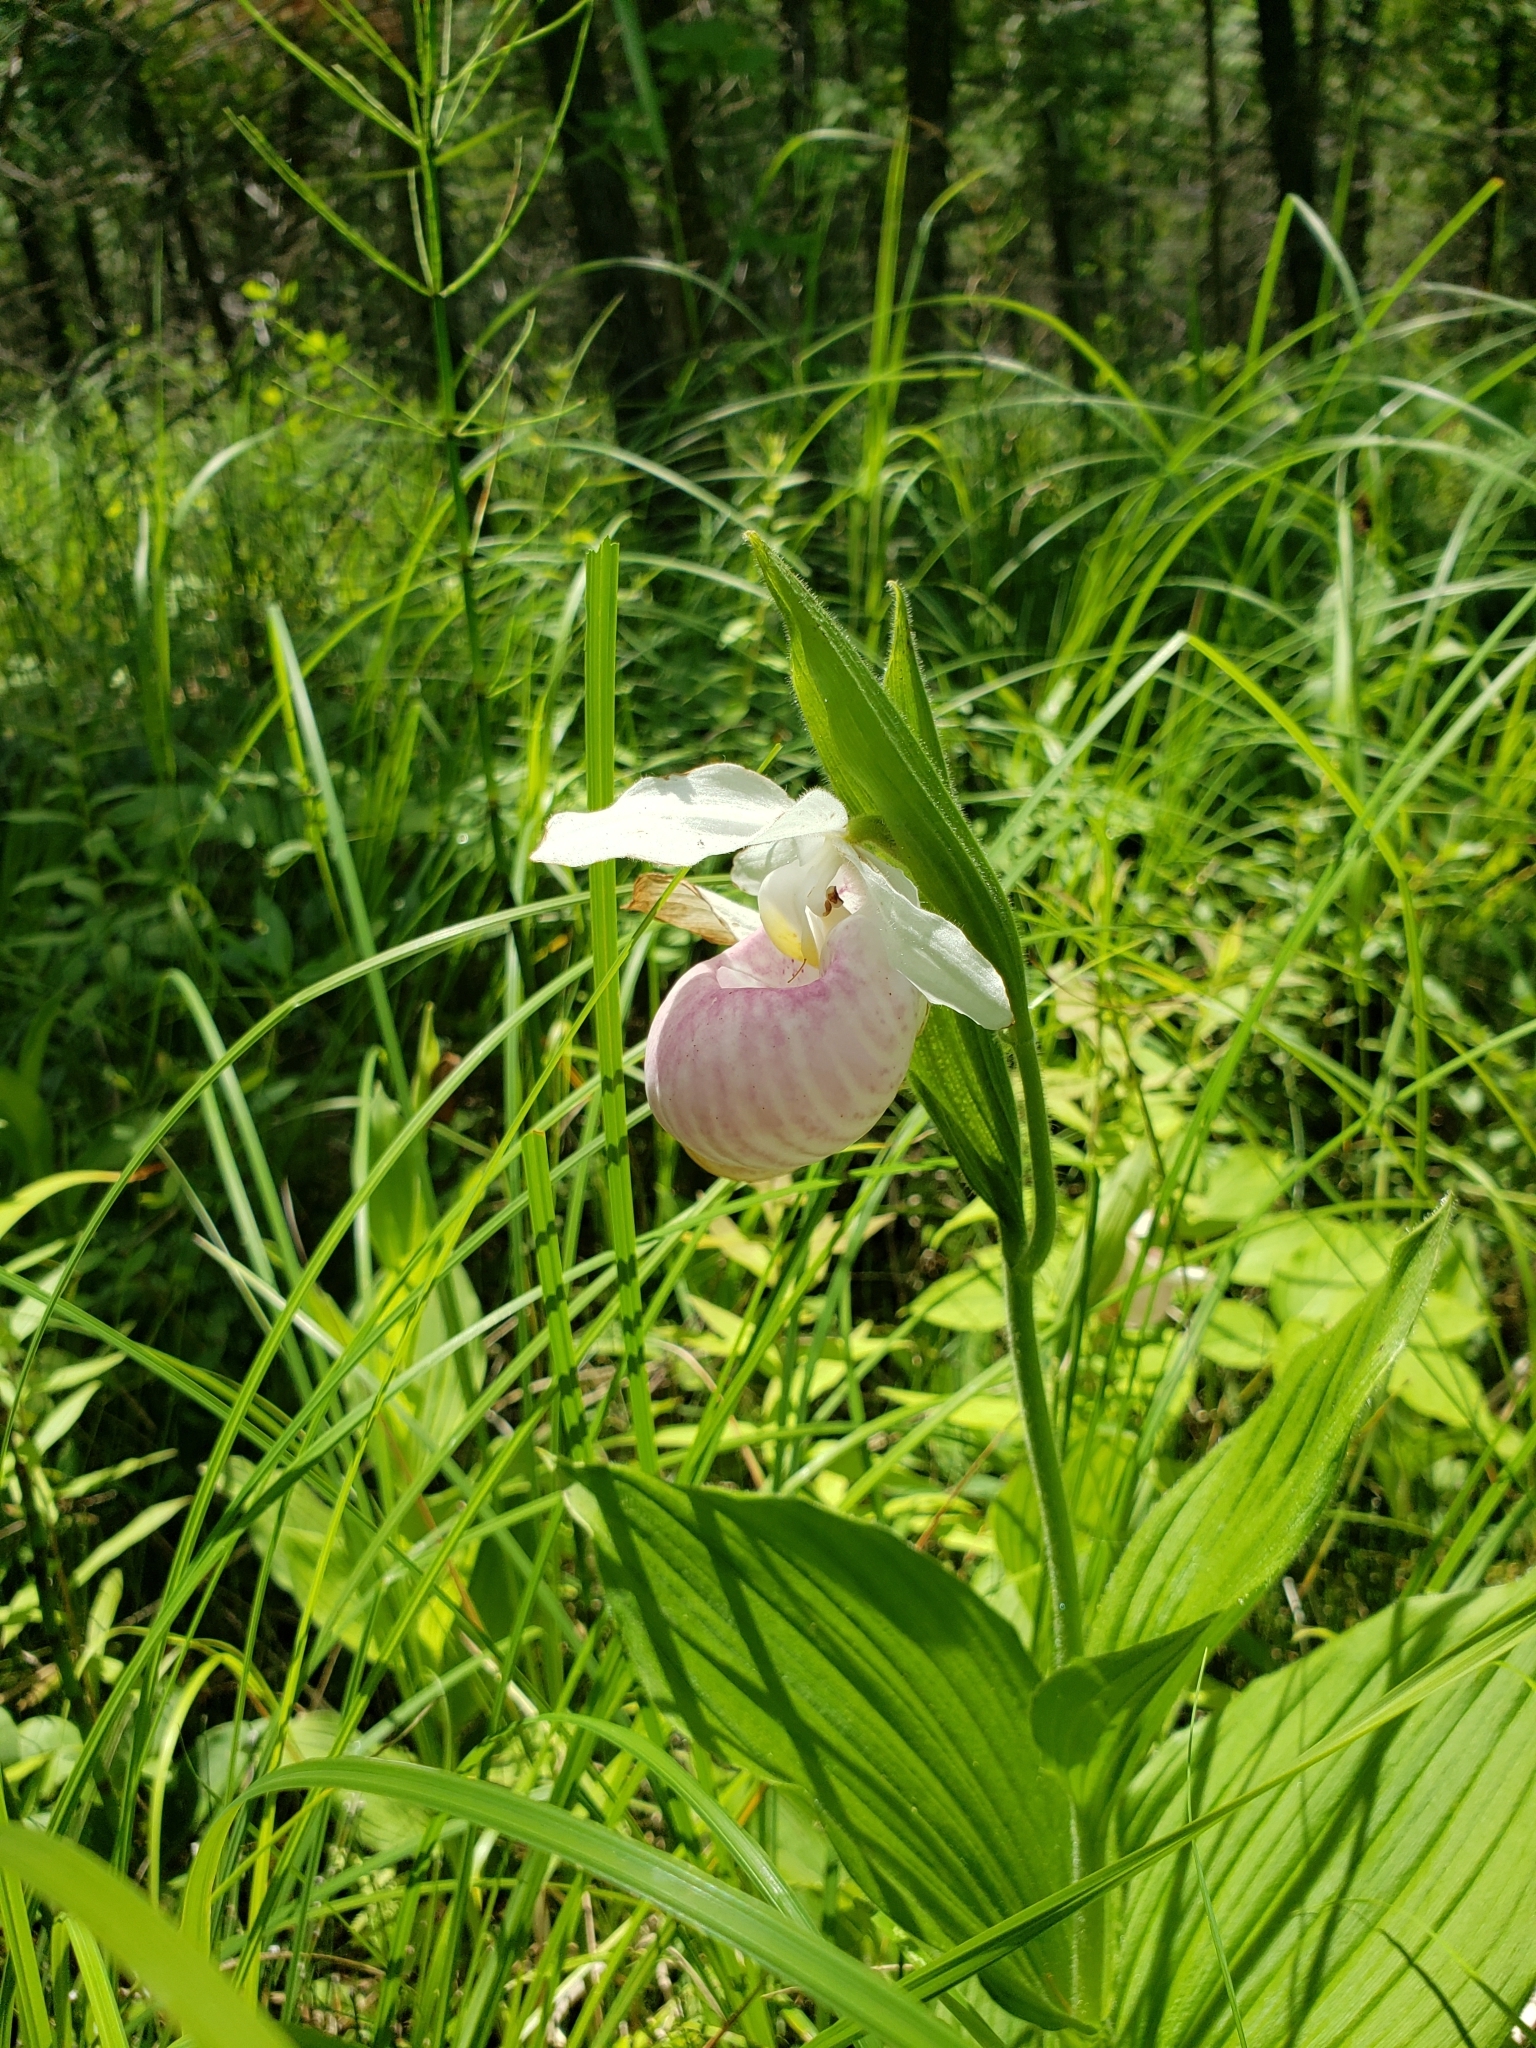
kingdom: Plantae
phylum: Tracheophyta
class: Liliopsida
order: Asparagales
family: Orchidaceae
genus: Cypripedium
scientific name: Cypripedium reginae
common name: Queen lady's-slipper
